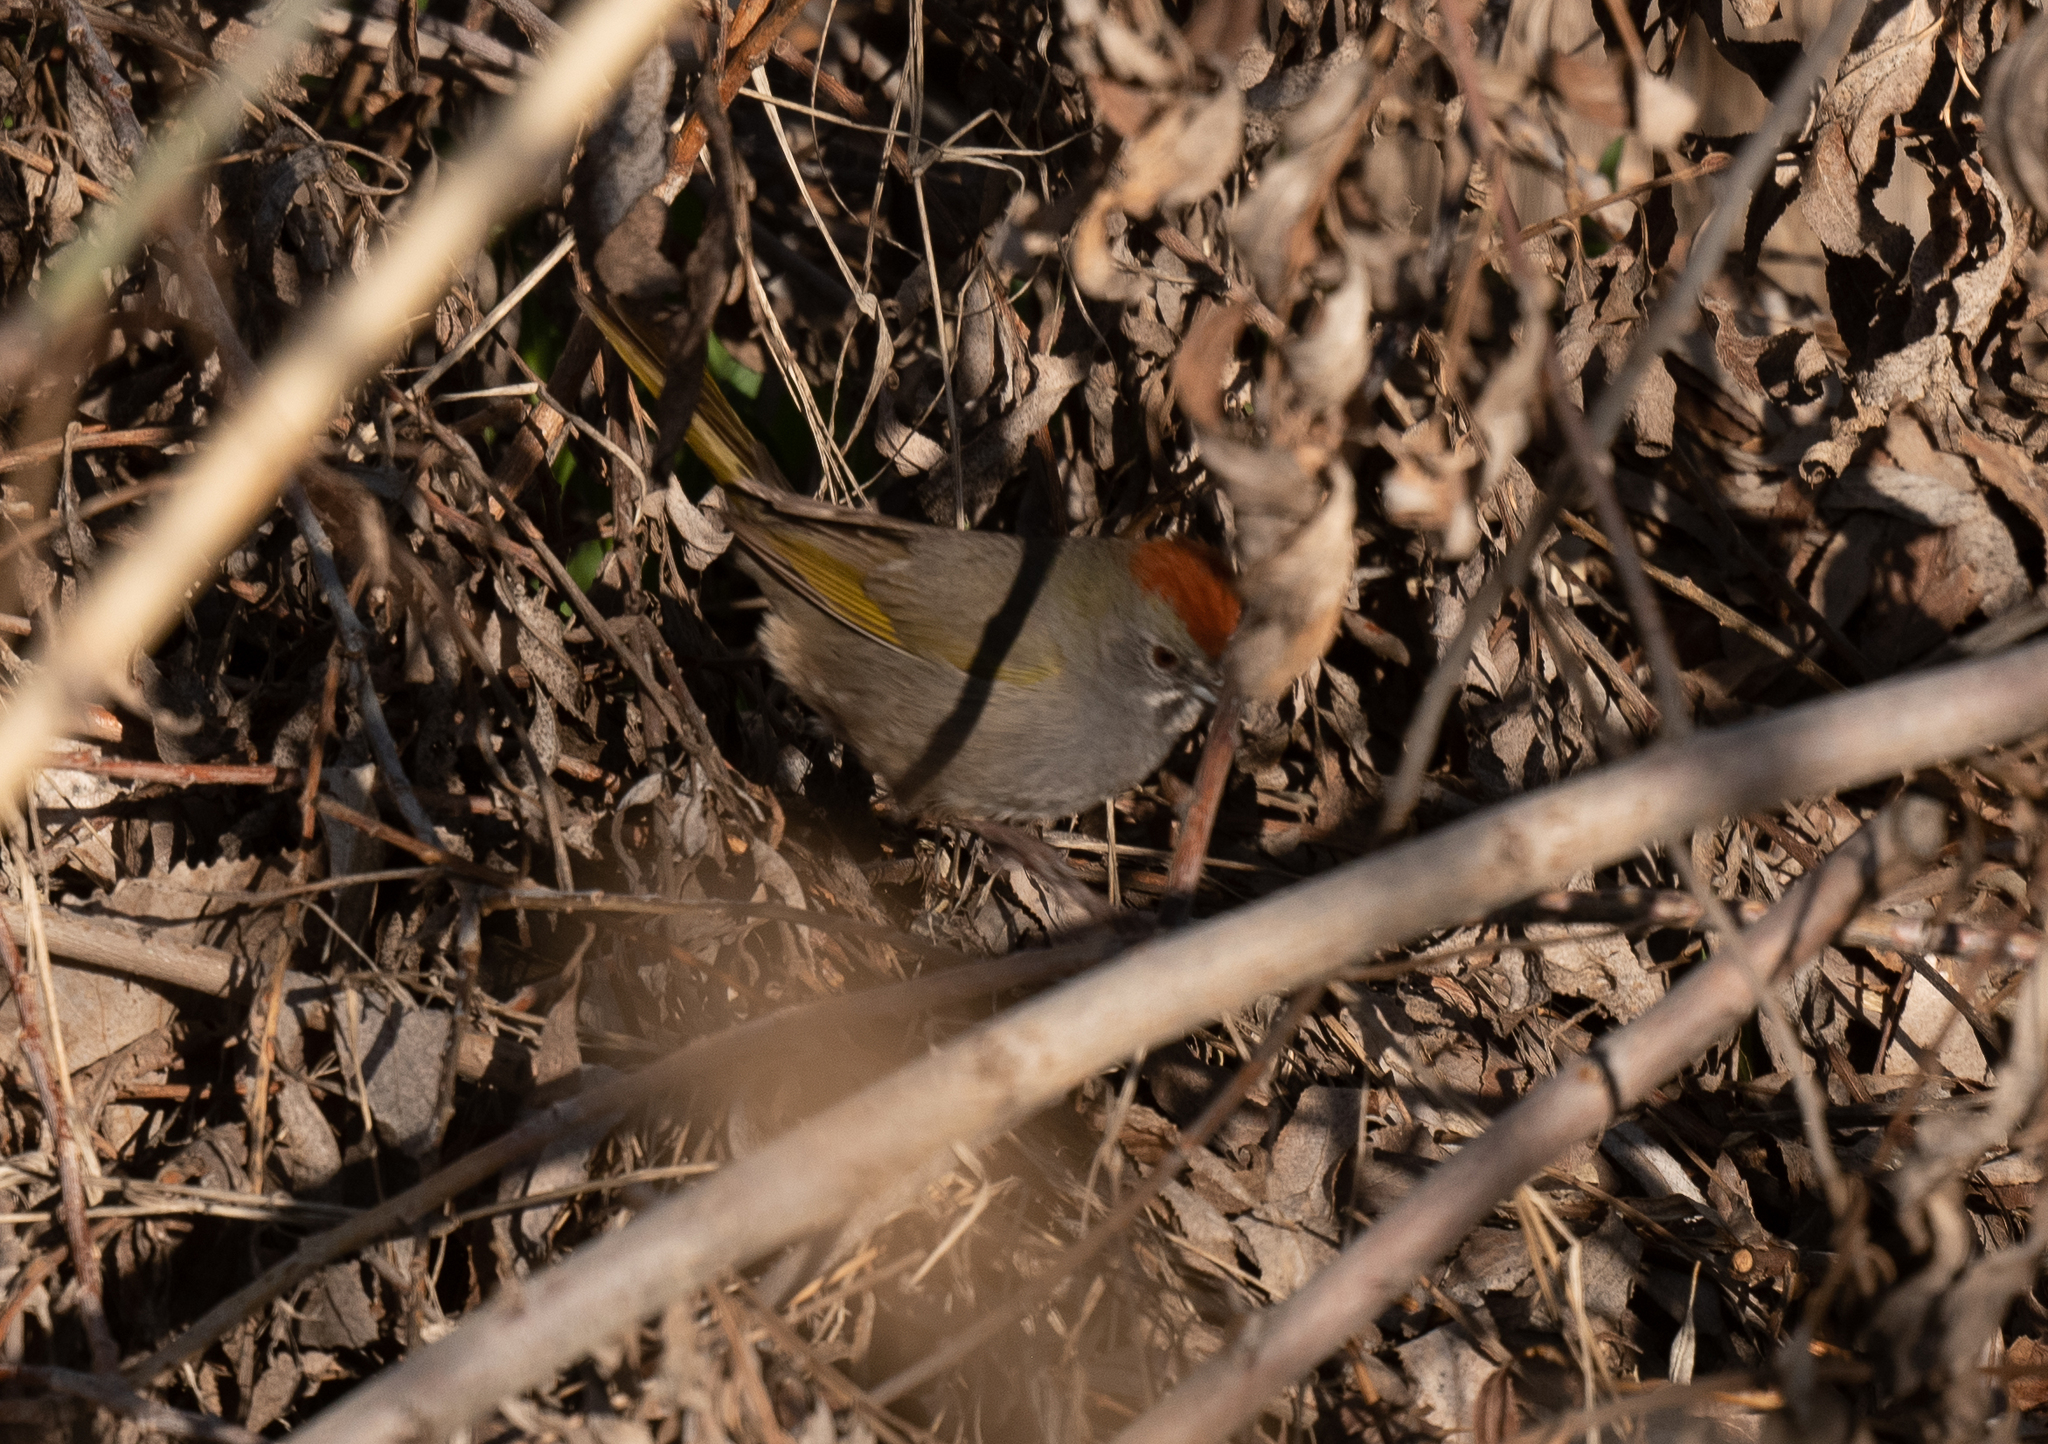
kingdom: Animalia
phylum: Chordata
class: Aves
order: Passeriformes
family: Passerellidae
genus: Pipilo
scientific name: Pipilo chlorurus
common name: Green-tailed towhee
